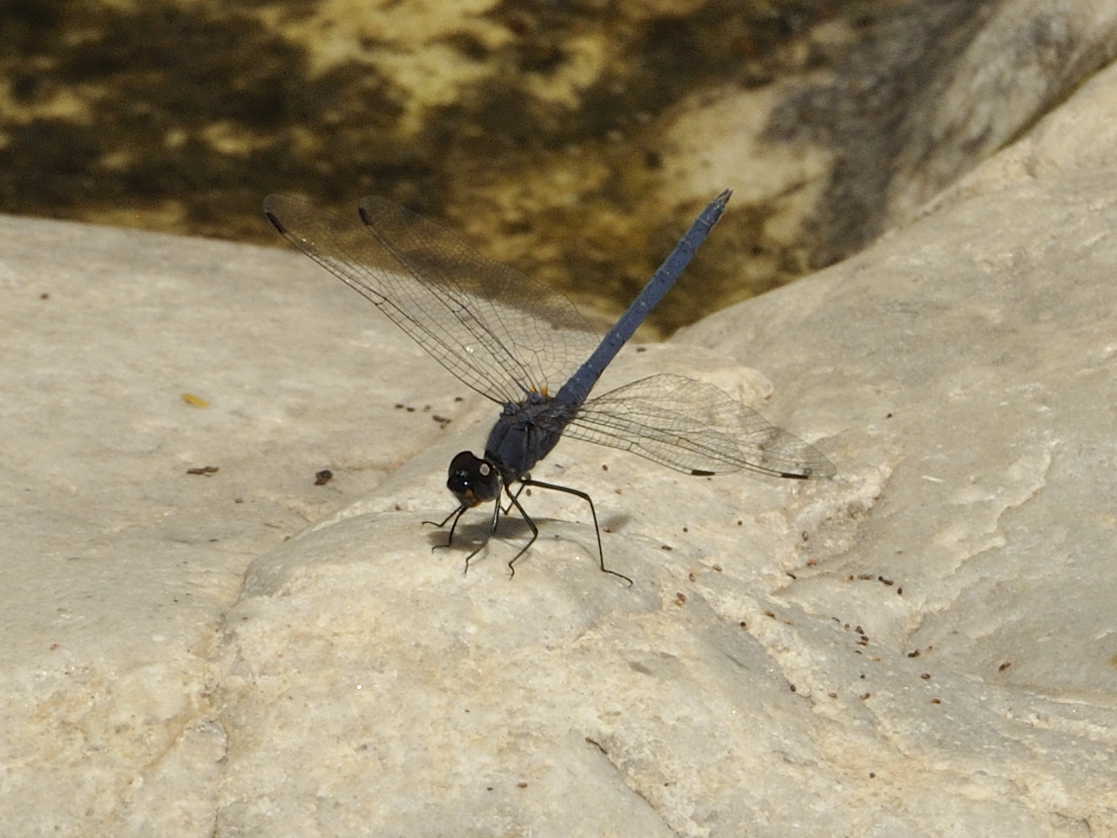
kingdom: Animalia
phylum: Arthropoda
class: Insecta
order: Odonata
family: Libellulidae
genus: Trithemis
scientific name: Trithemis furva
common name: Dark dropwing
